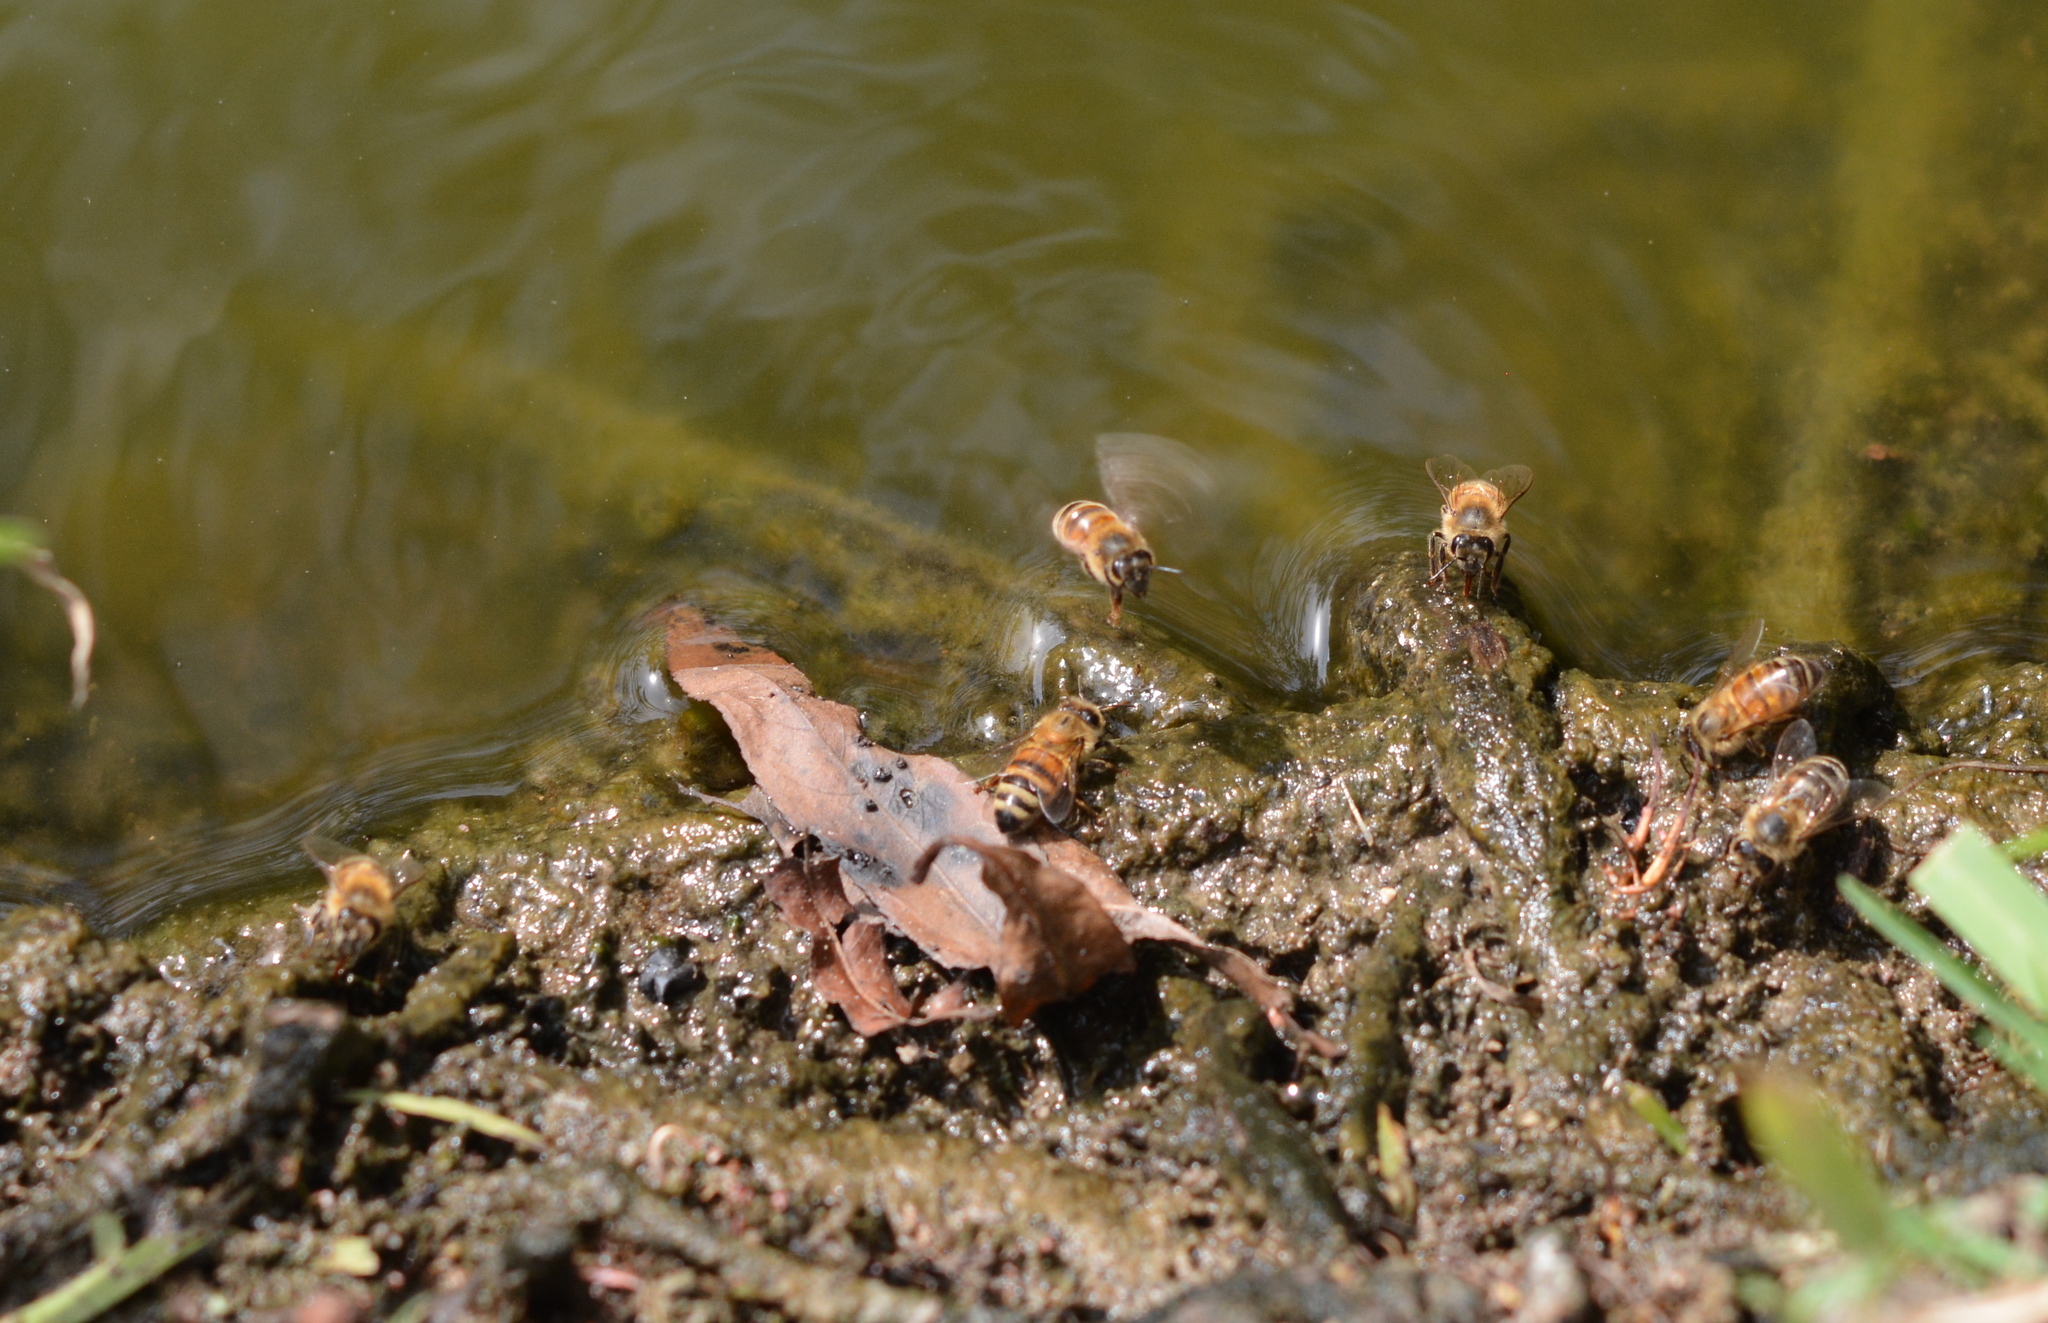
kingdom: Animalia
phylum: Arthropoda
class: Insecta
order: Hymenoptera
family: Apidae
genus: Apis
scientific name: Apis mellifera
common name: Honey bee
